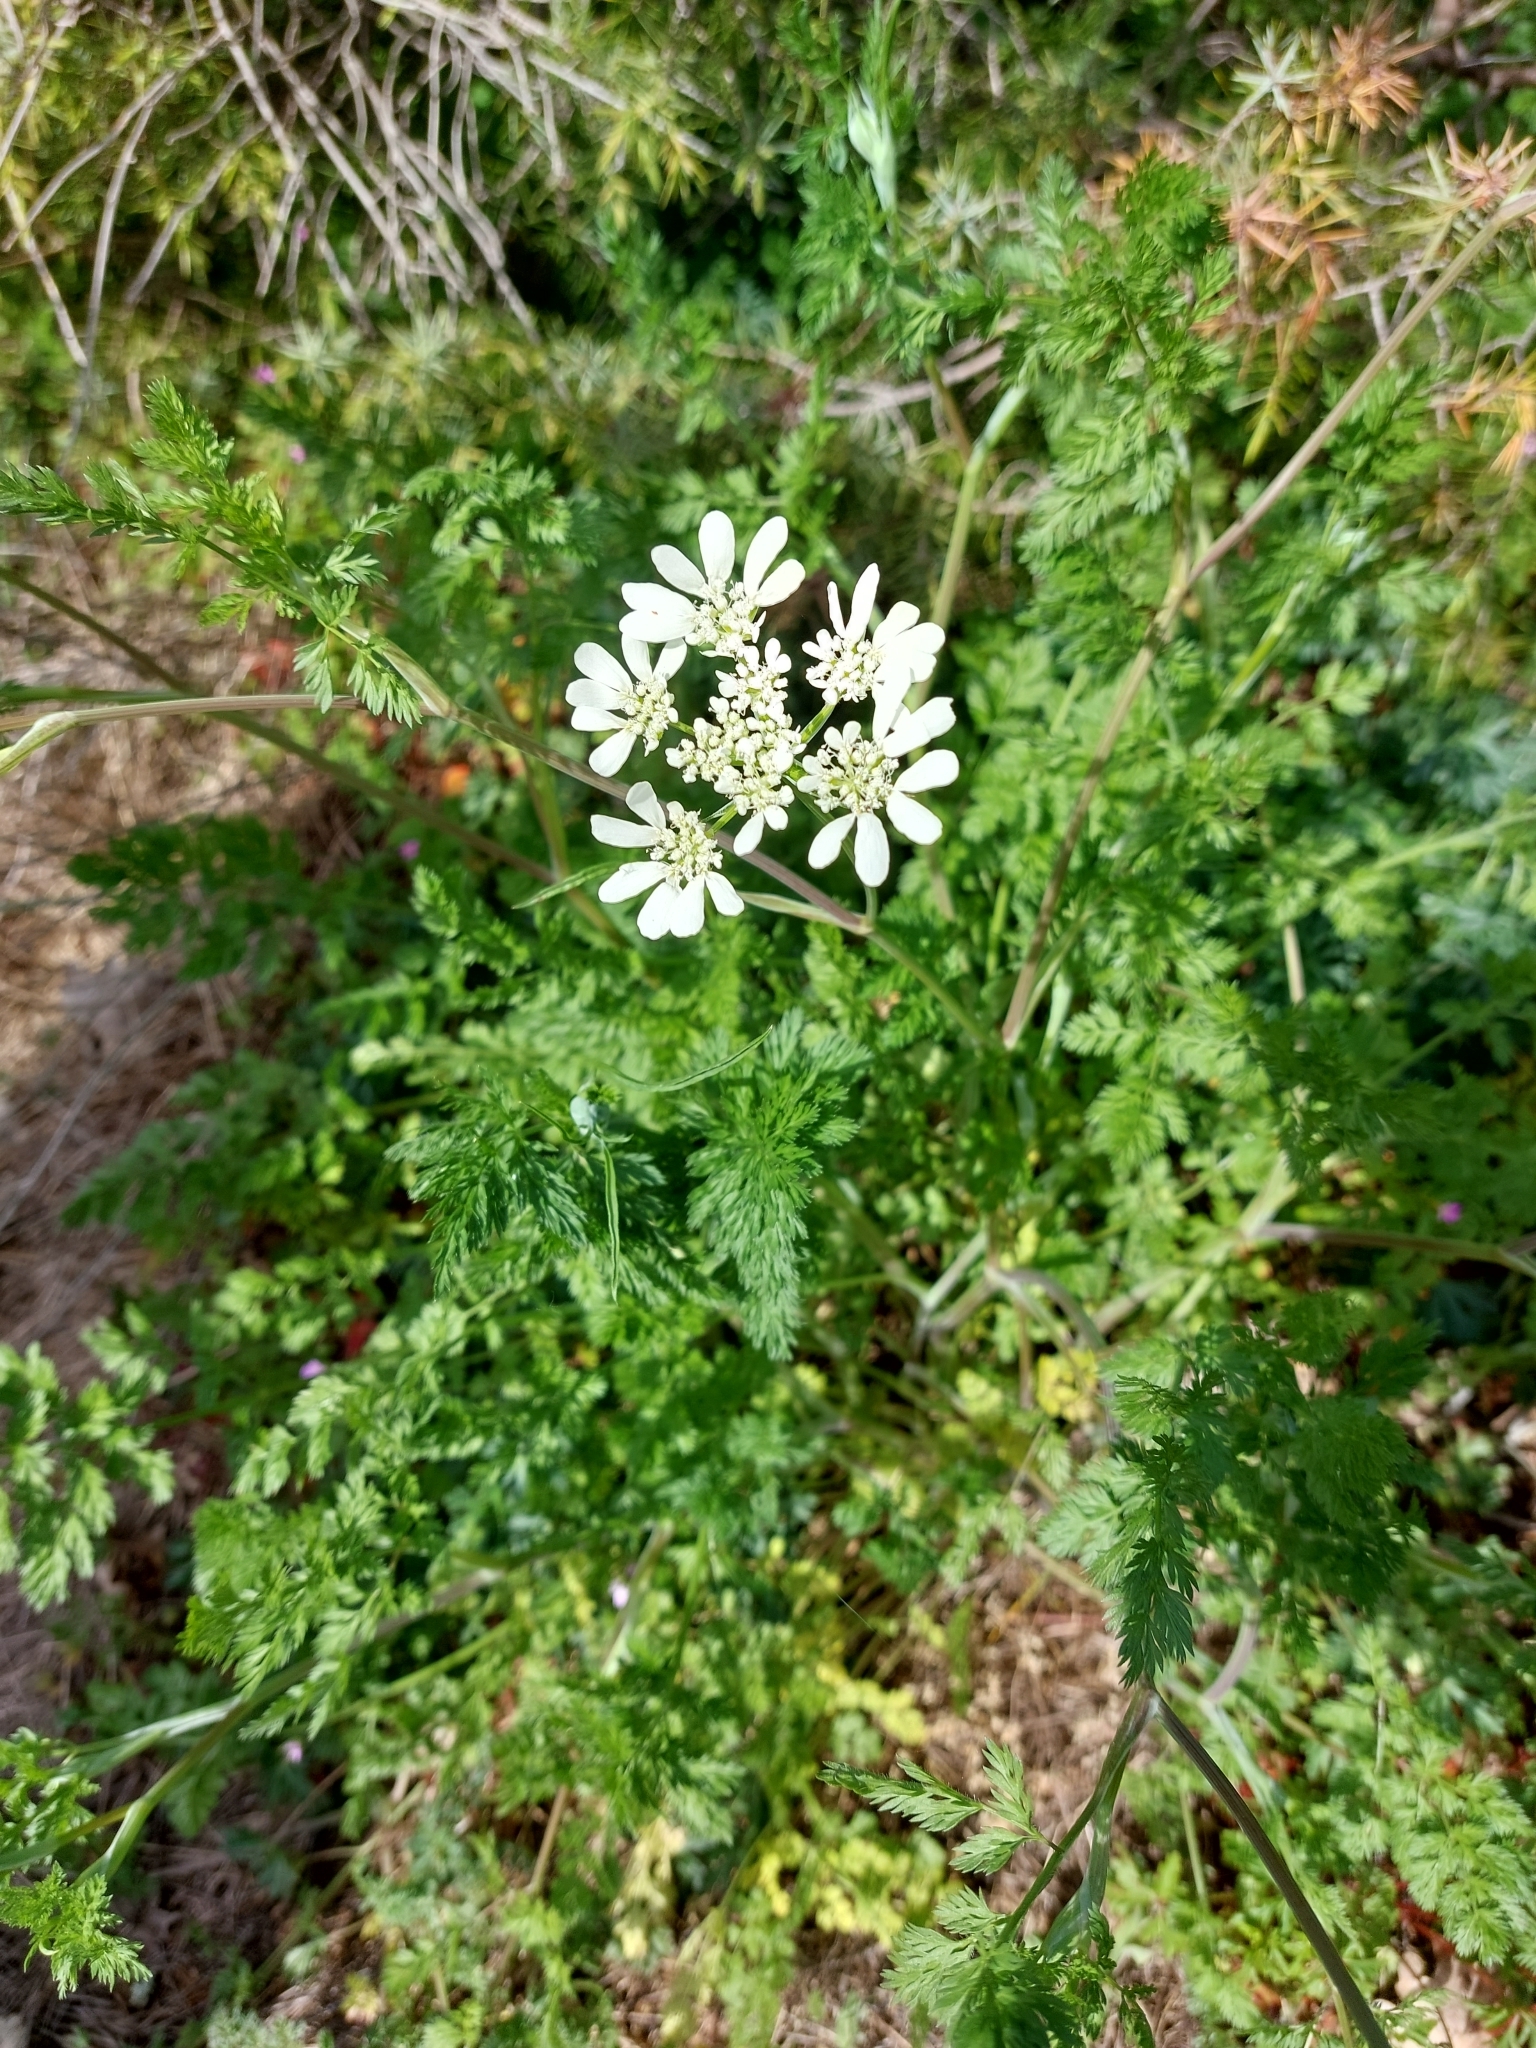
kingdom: Plantae
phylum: Tracheophyta
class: Magnoliopsida
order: Apiales
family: Apiaceae
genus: Orlaya
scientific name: Orlaya grandiflora
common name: White lace flower
